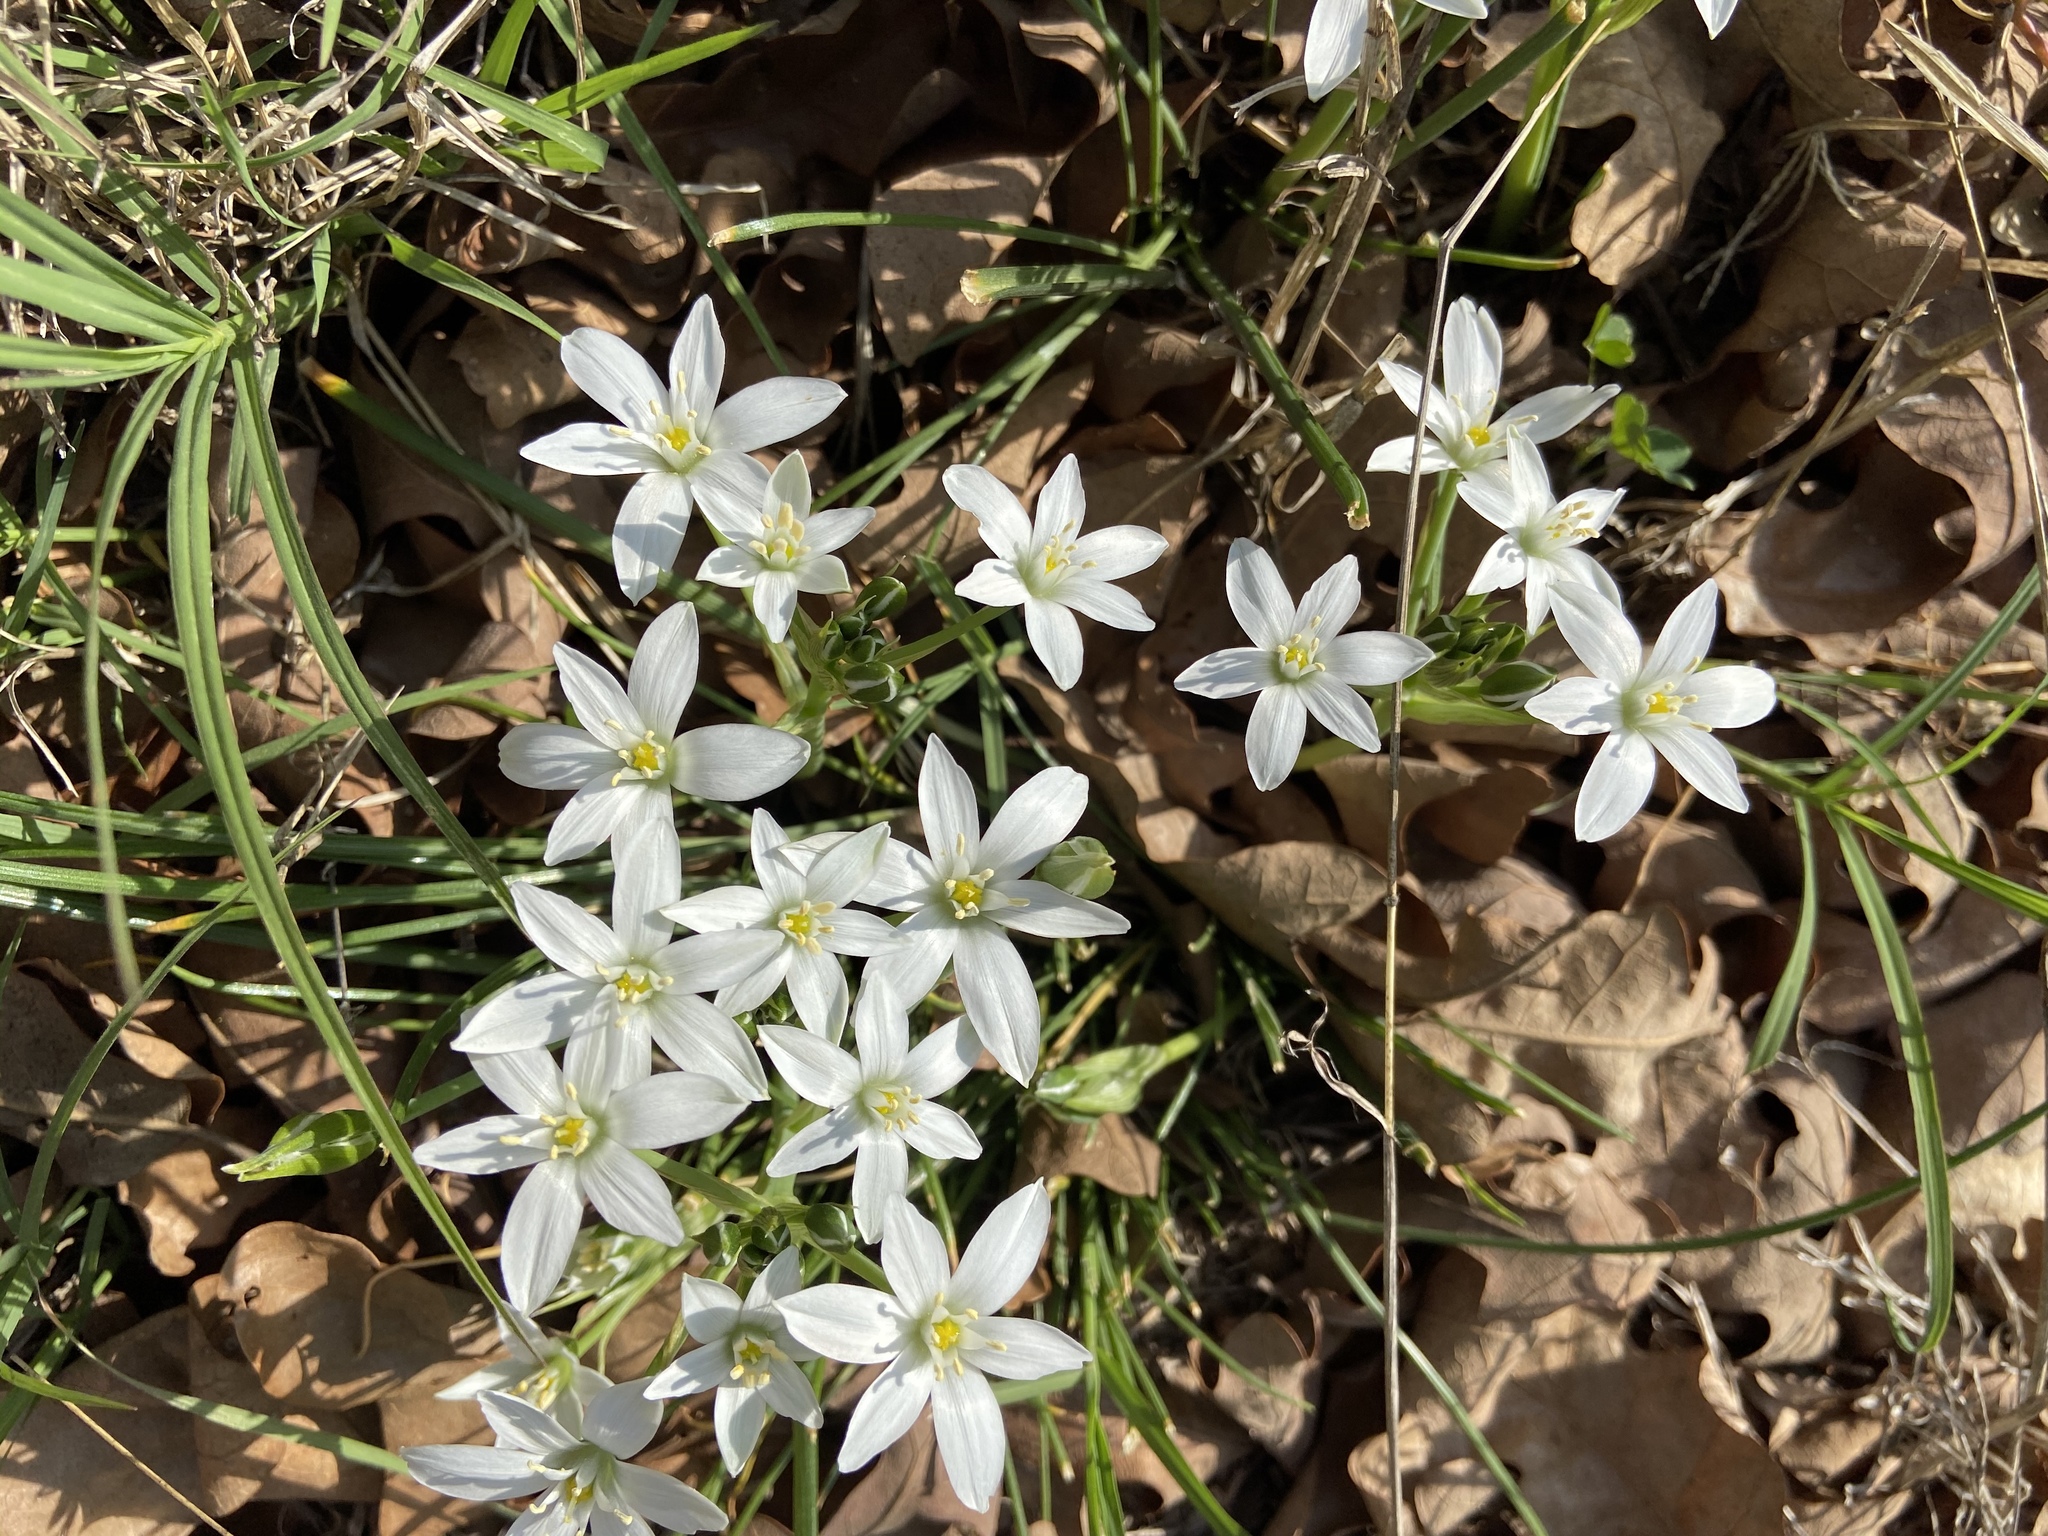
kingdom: Plantae
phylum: Tracheophyta
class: Liliopsida
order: Asparagales
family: Asparagaceae
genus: Ornithogalum
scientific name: Ornithogalum umbellatum
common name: Garden star-of-bethlehem
